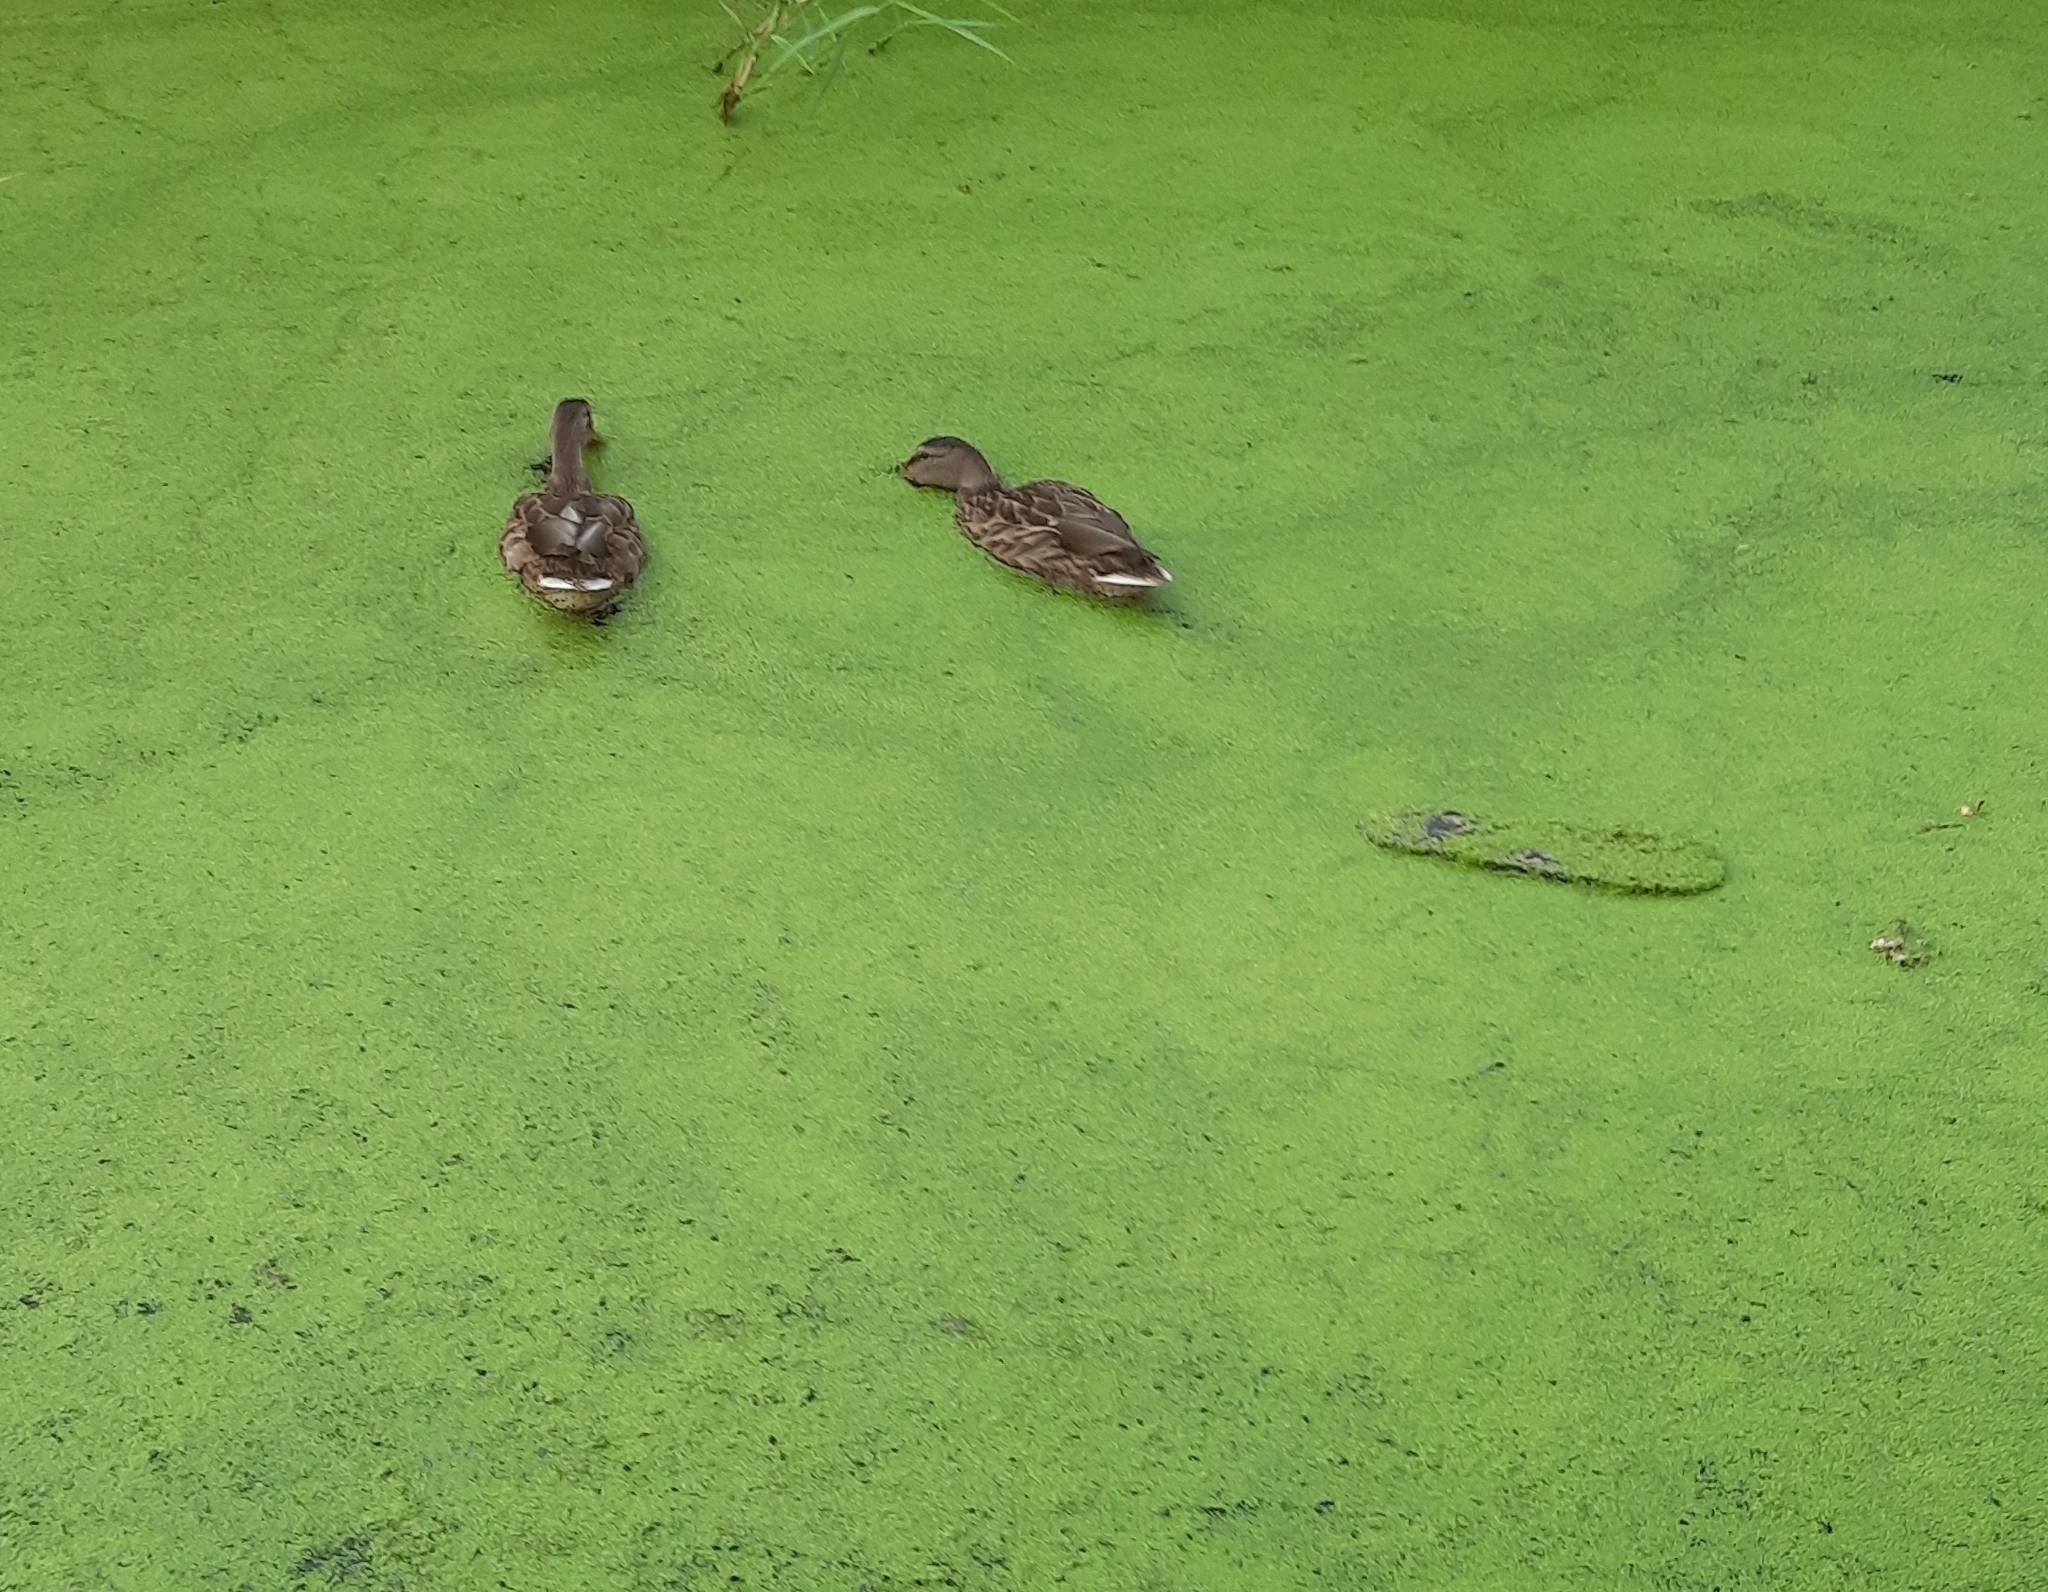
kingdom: Animalia
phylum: Chordata
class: Aves
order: Anseriformes
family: Anatidae
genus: Anas
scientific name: Anas platyrhynchos
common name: Mallard
